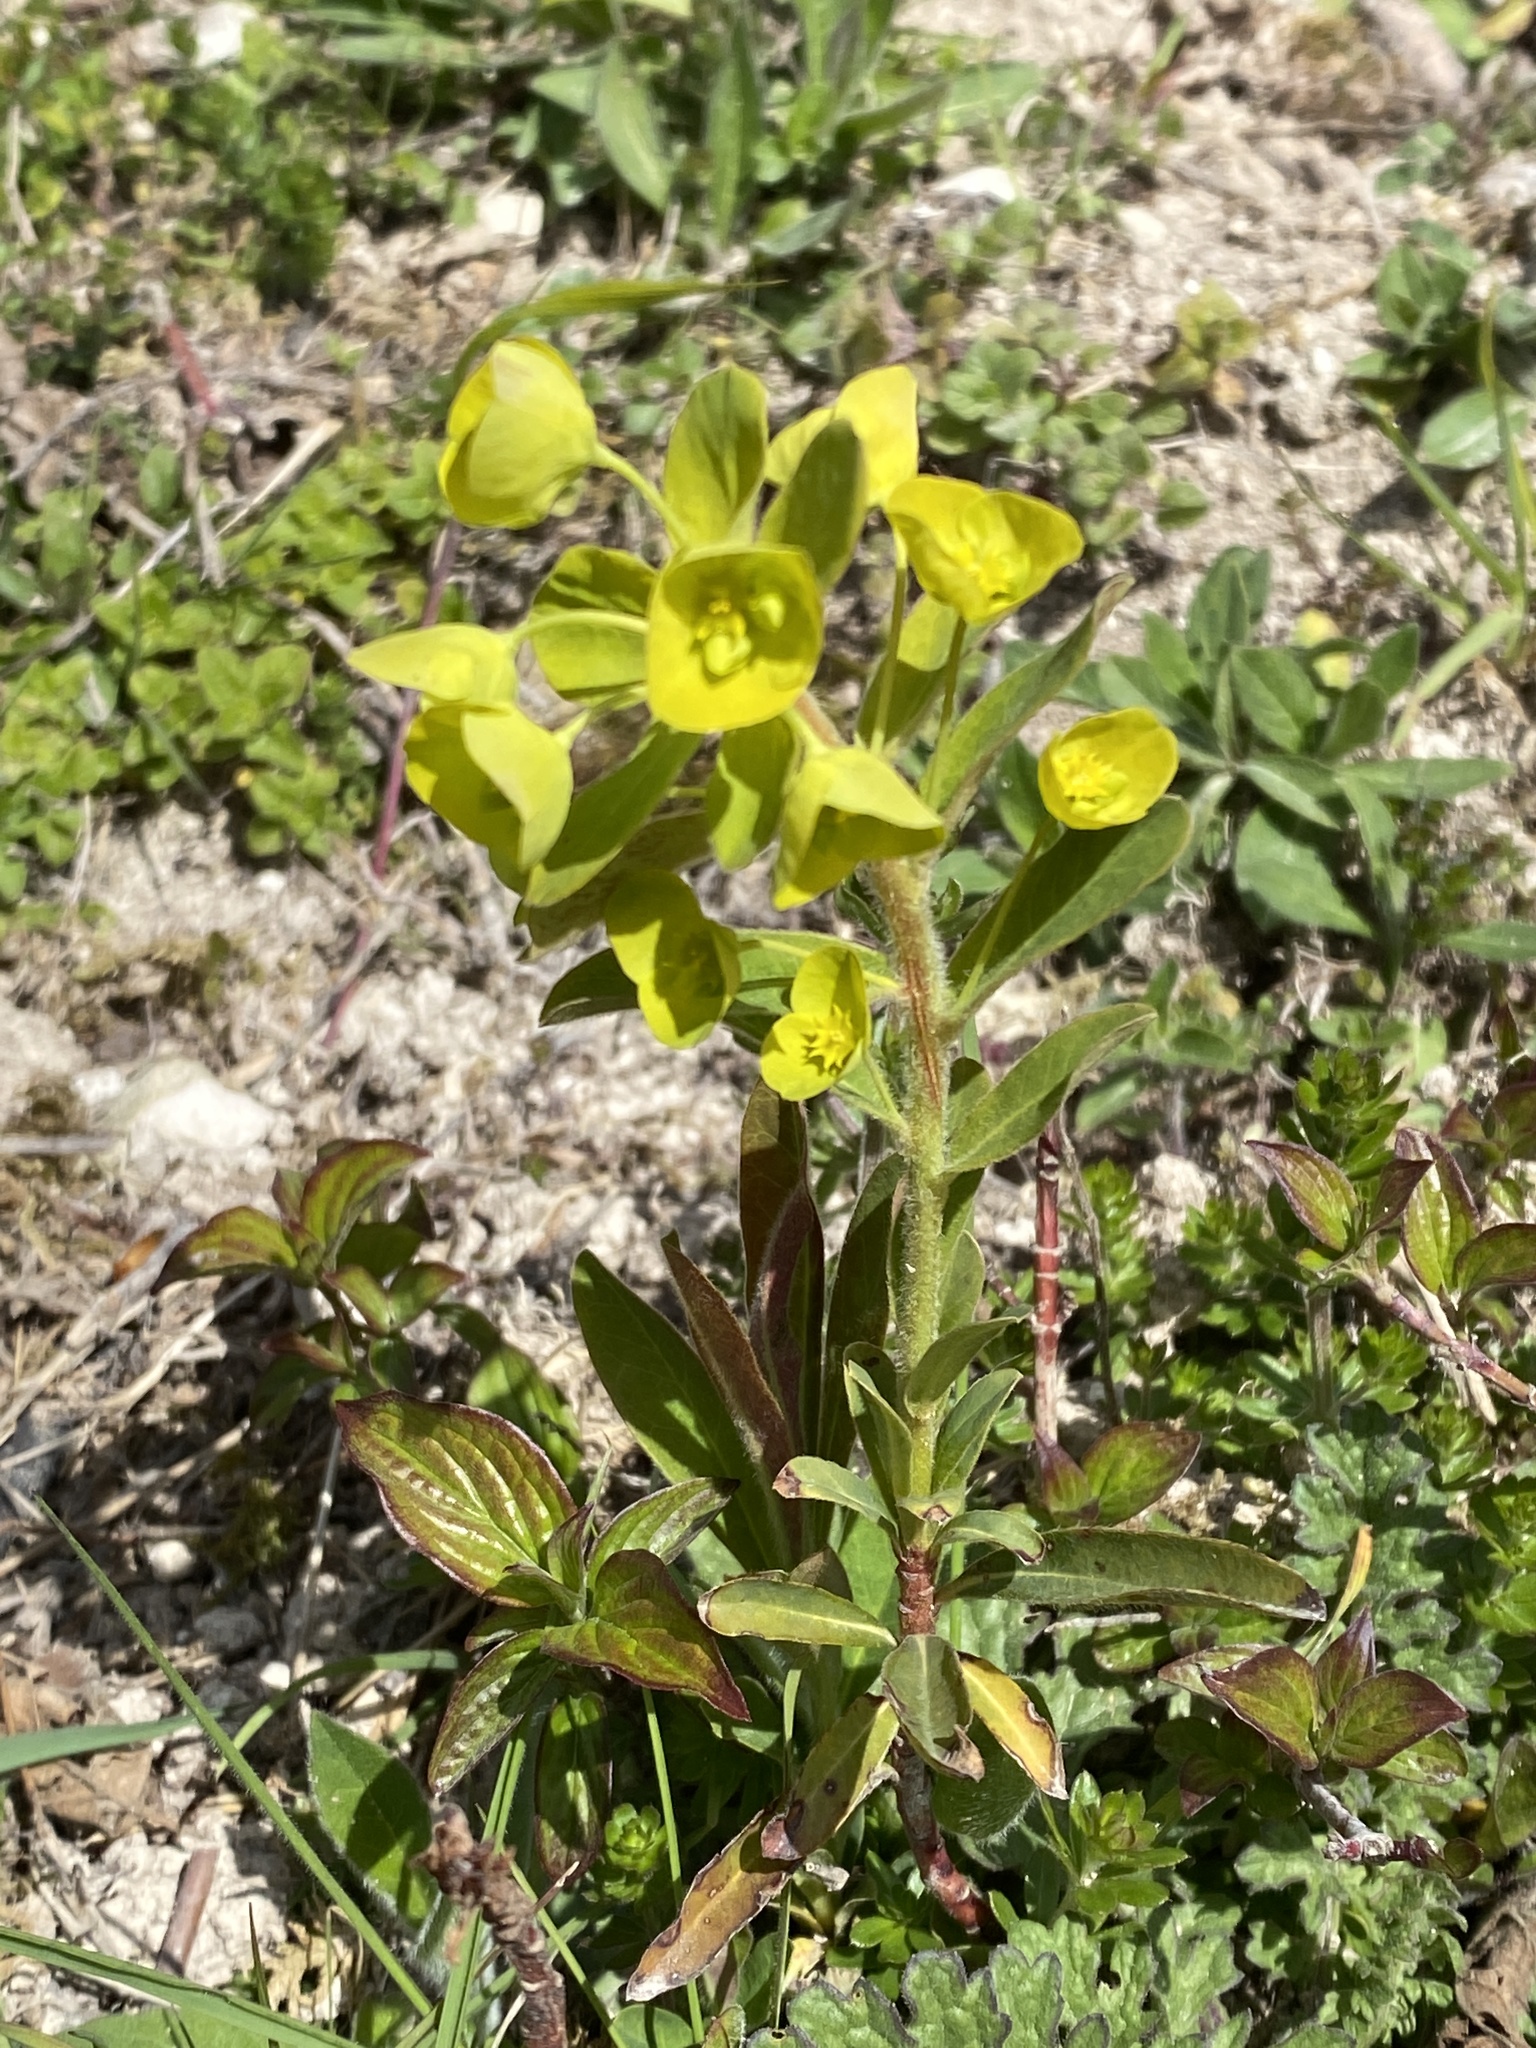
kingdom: Plantae
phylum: Tracheophyta
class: Magnoliopsida
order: Malpighiales
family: Euphorbiaceae
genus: Euphorbia
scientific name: Euphorbia amygdaloides
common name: Wood spurge
